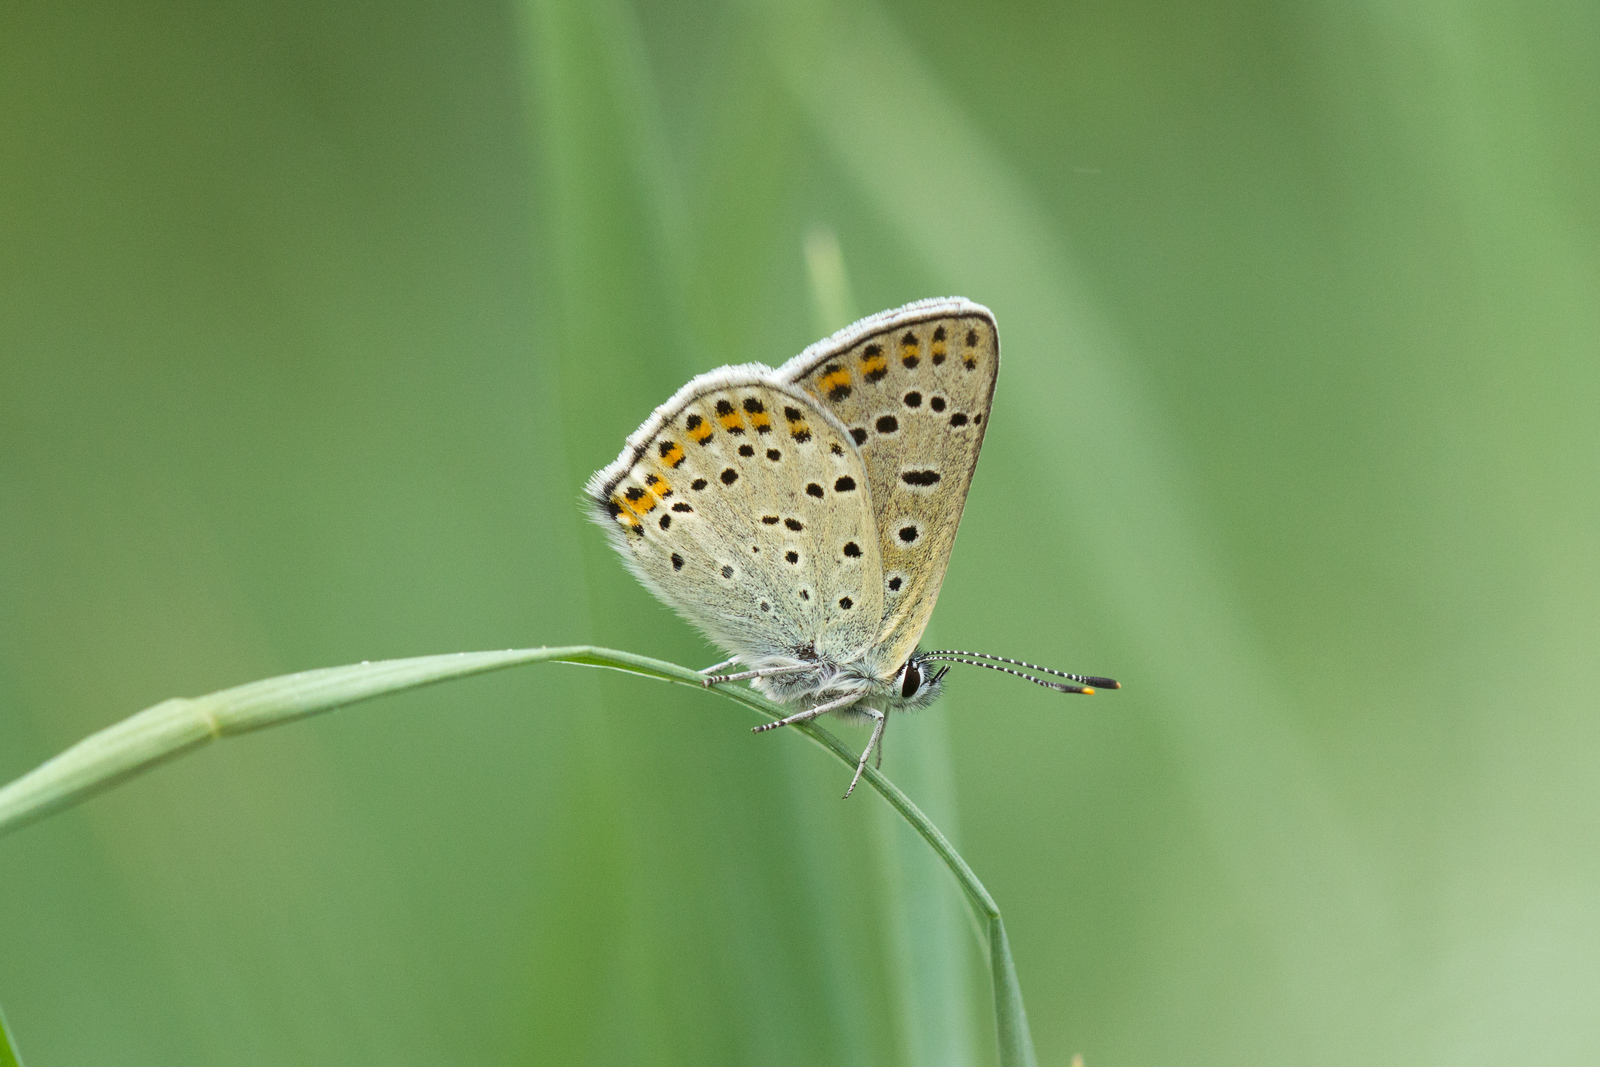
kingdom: Animalia
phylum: Arthropoda
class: Insecta
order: Lepidoptera
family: Lycaenidae
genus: Loweia
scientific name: Loweia tityrus
